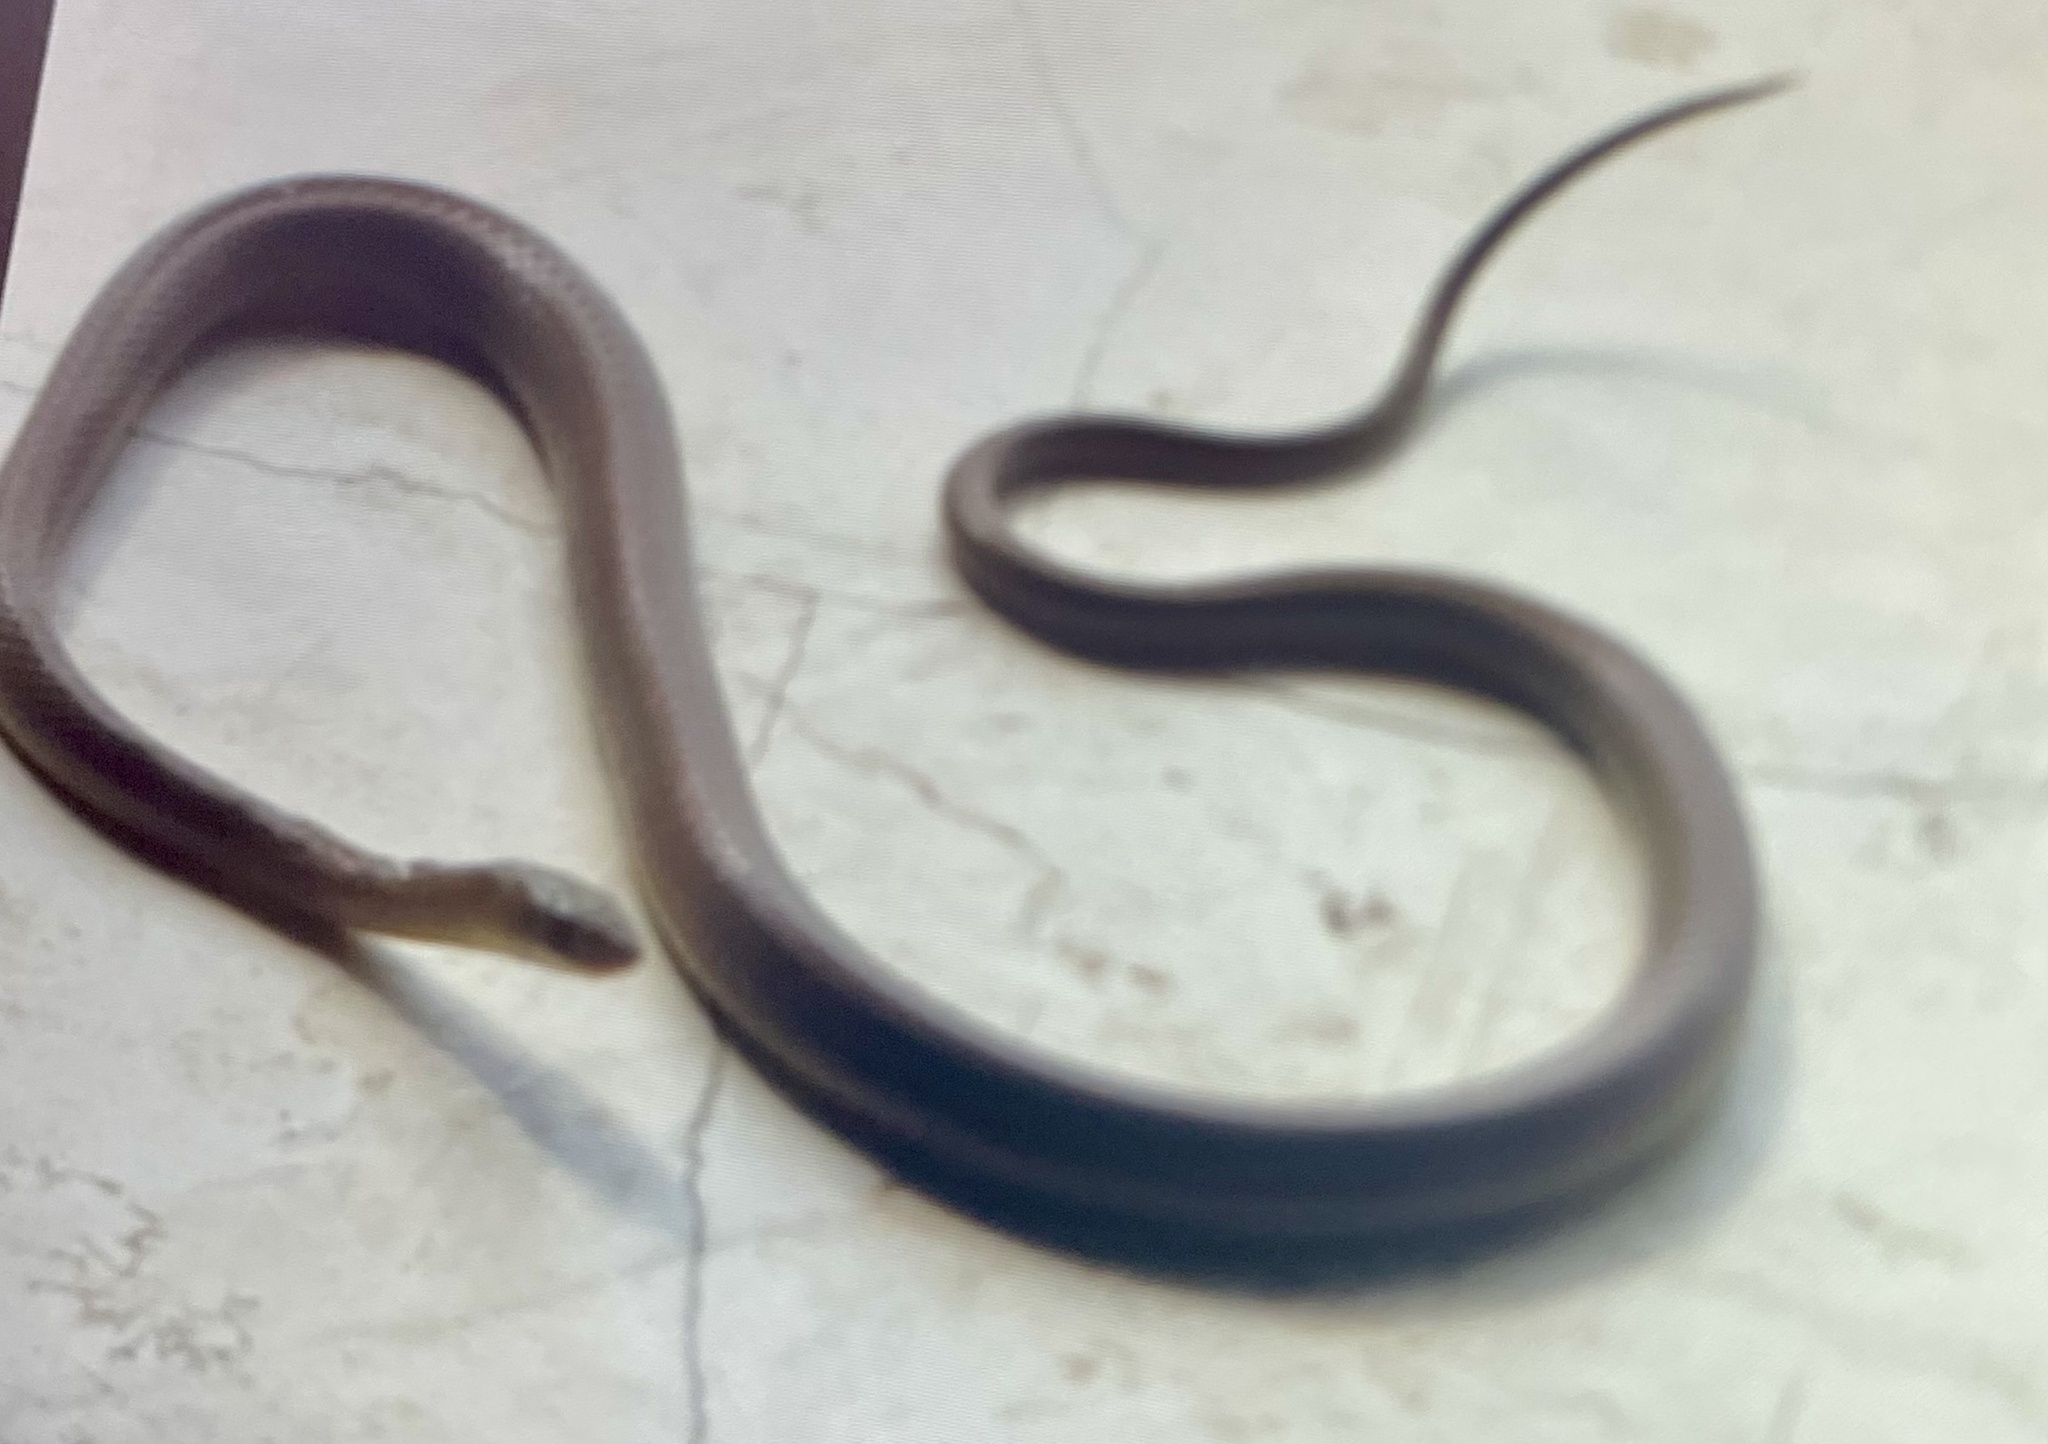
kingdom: Animalia
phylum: Chordata
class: Squamata
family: Psammophiidae
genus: Psammophis
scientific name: Psammophis mossambicus
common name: Olive grass snake
